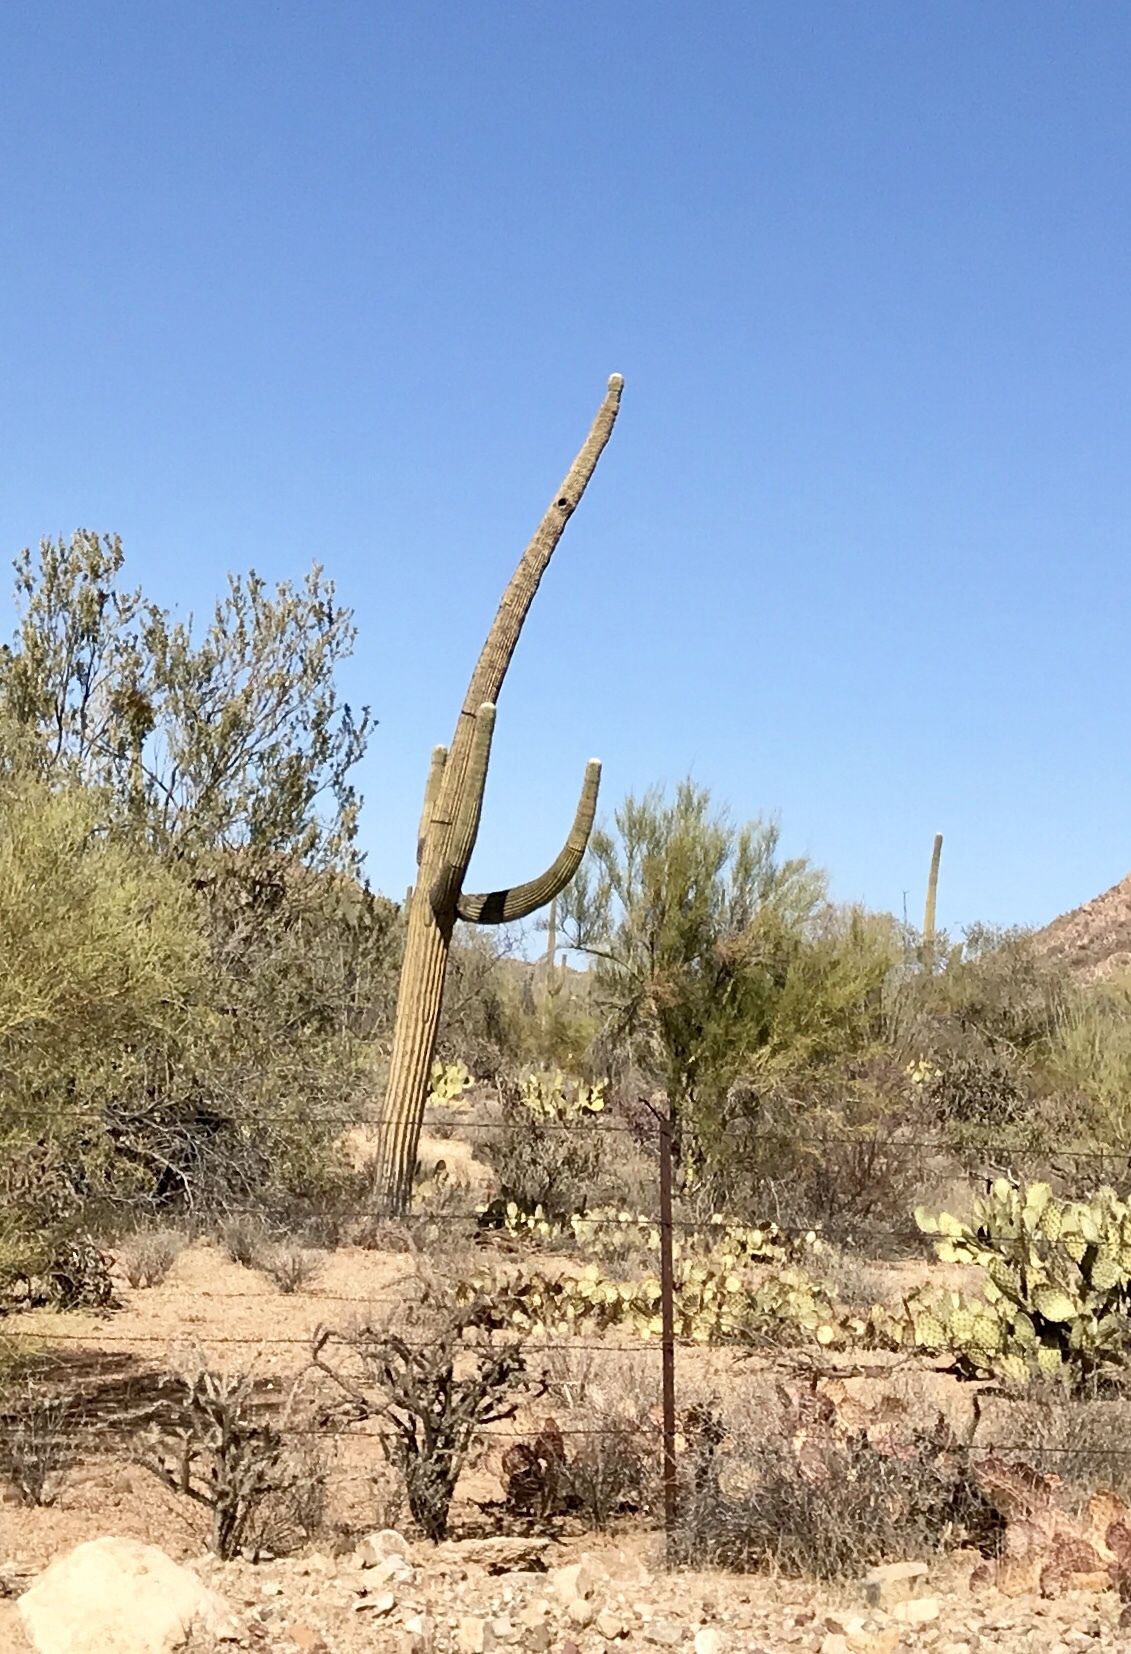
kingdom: Plantae
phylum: Tracheophyta
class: Magnoliopsida
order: Caryophyllales
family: Cactaceae
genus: Carnegiea
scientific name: Carnegiea gigantea
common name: Saguaro
